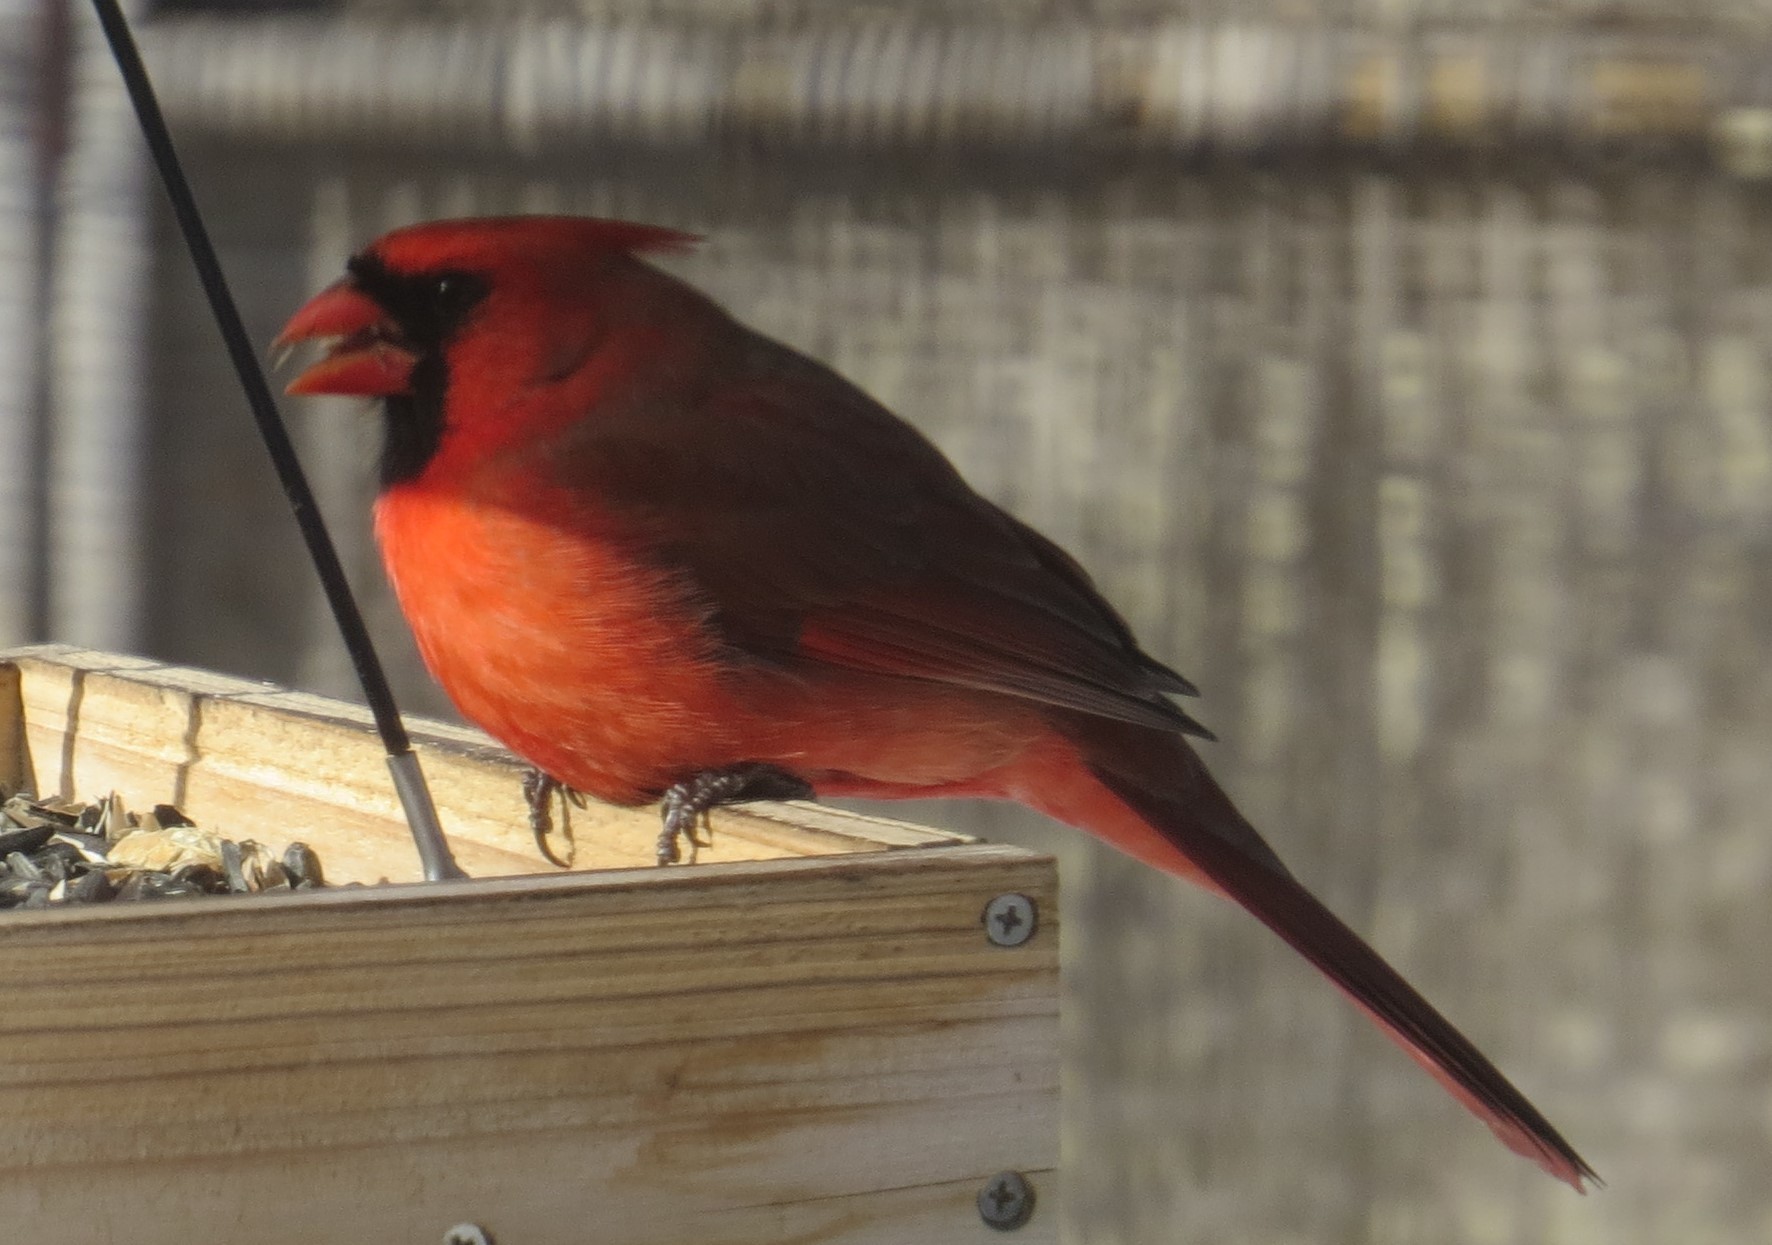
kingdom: Animalia
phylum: Chordata
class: Aves
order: Passeriformes
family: Cardinalidae
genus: Cardinalis
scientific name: Cardinalis cardinalis
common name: Northern cardinal
